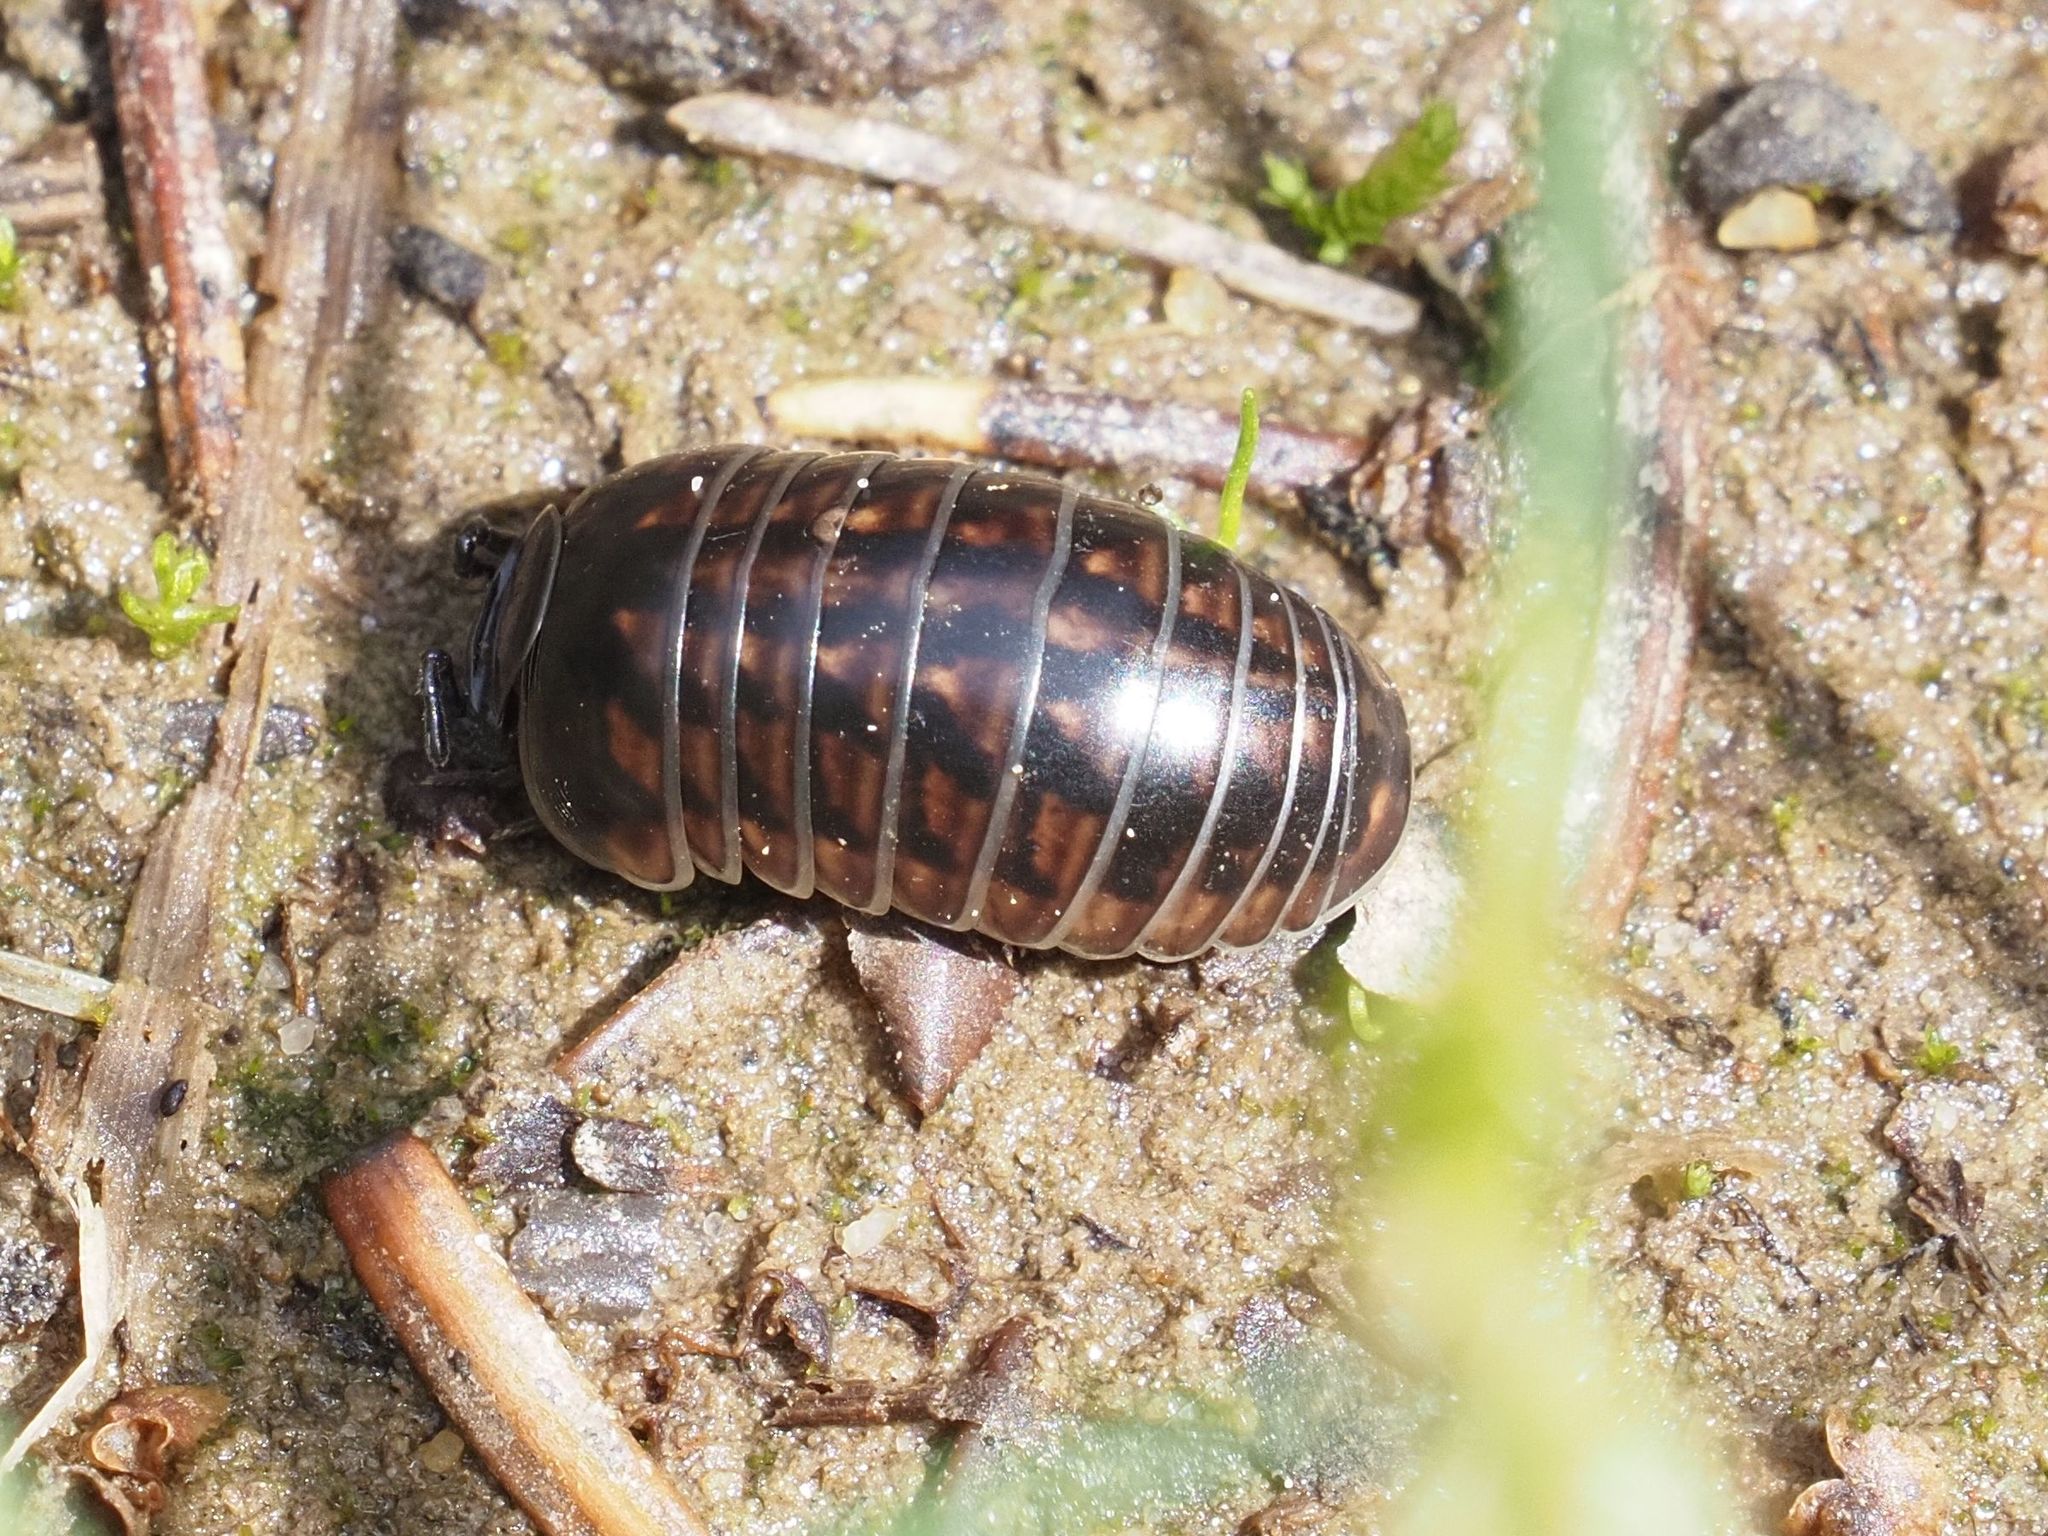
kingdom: Animalia
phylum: Arthropoda
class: Diplopoda
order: Glomerida
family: Glomeridae
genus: Glomeris
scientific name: Glomeris hexasticha
